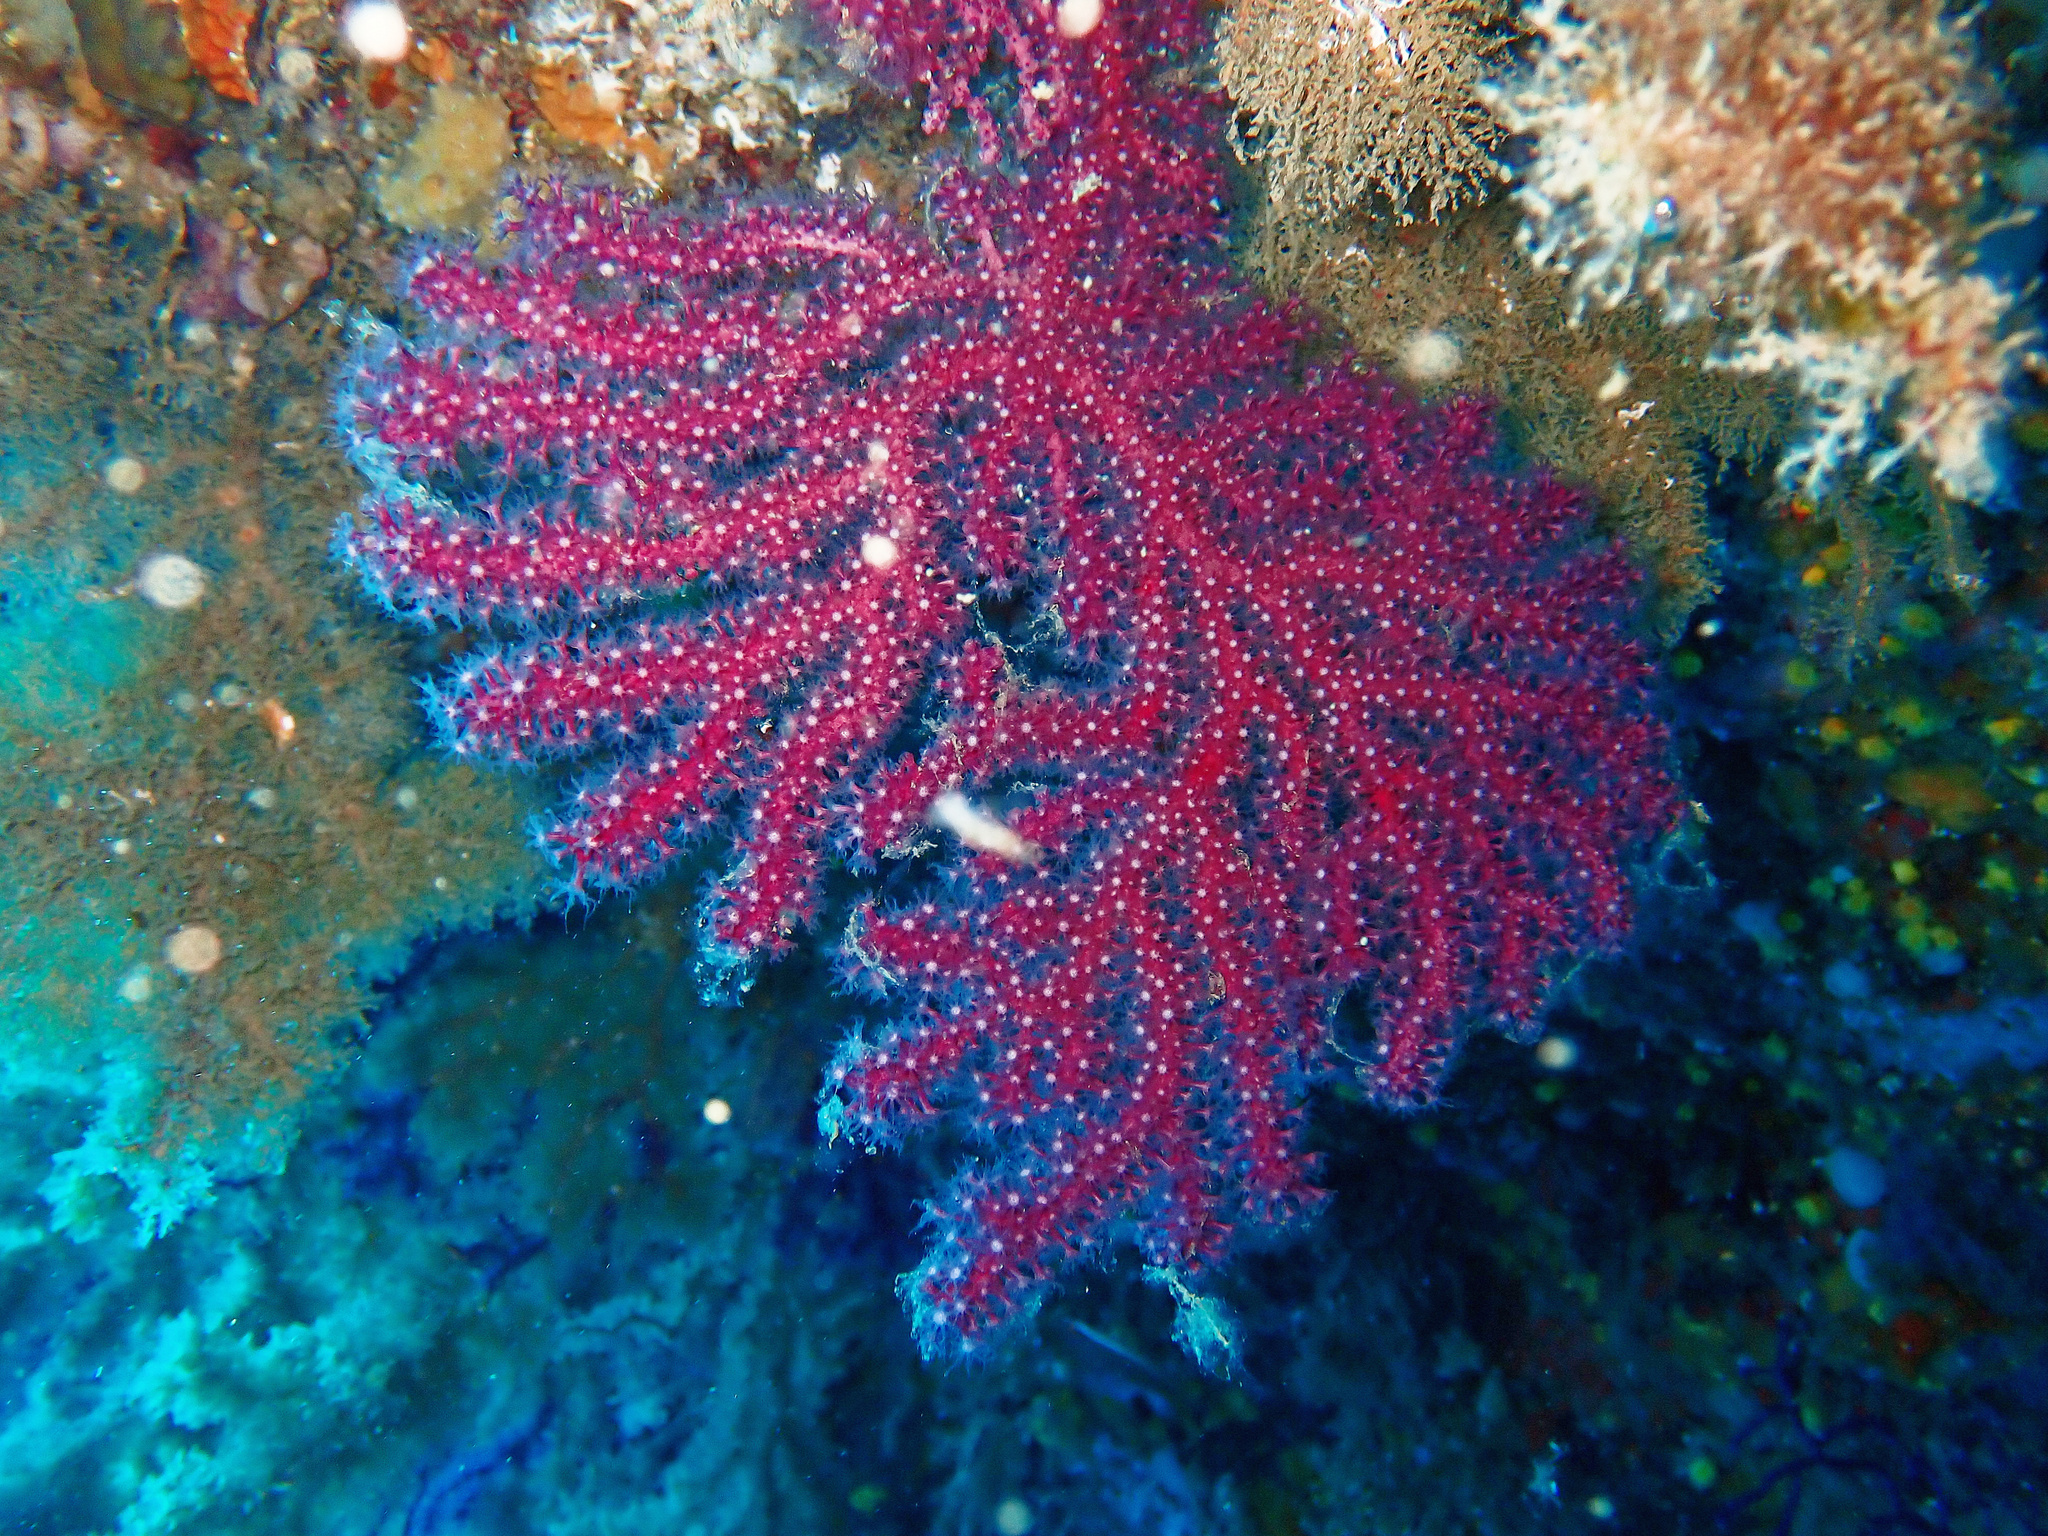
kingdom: Animalia
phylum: Cnidaria
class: Anthozoa
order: Malacalcyonacea
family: Paramuriceidae
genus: Paramuricea
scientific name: Paramuricea clavata
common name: Violescent sea-whip
